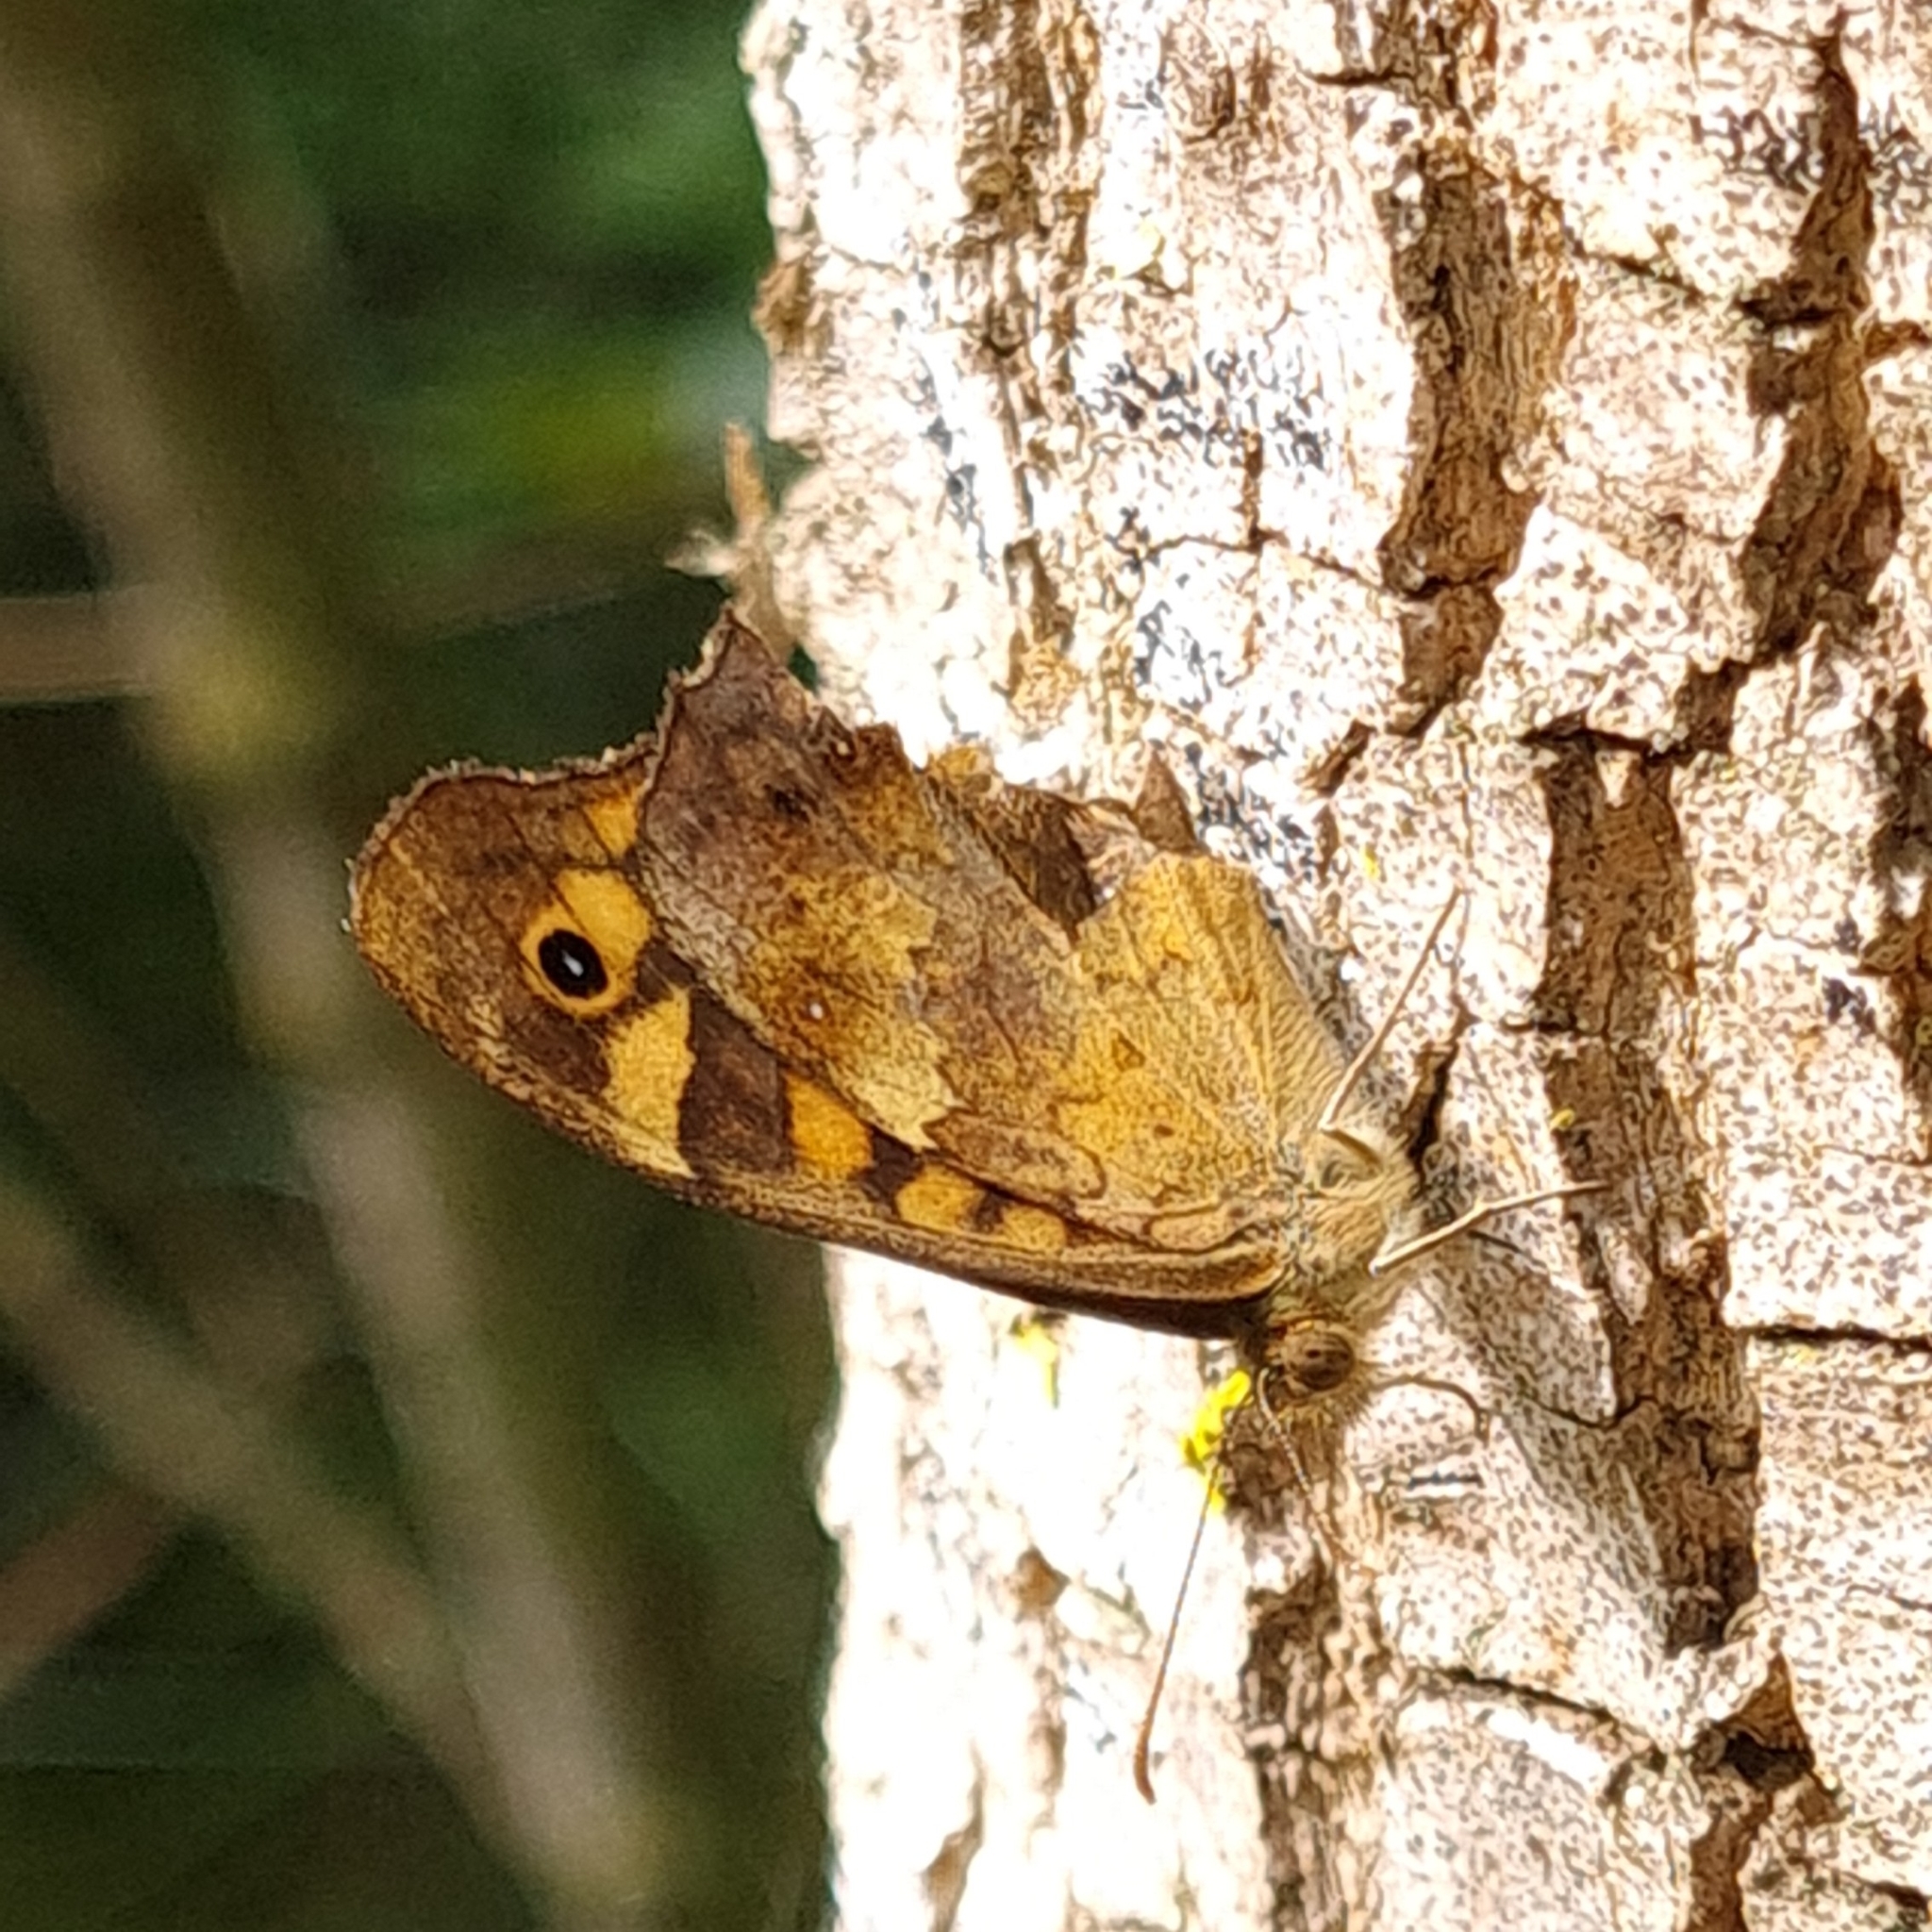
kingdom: Animalia
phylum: Arthropoda
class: Insecta
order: Lepidoptera
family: Nymphalidae
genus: Pararge
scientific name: Pararge aegeria
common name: Speckled wood
